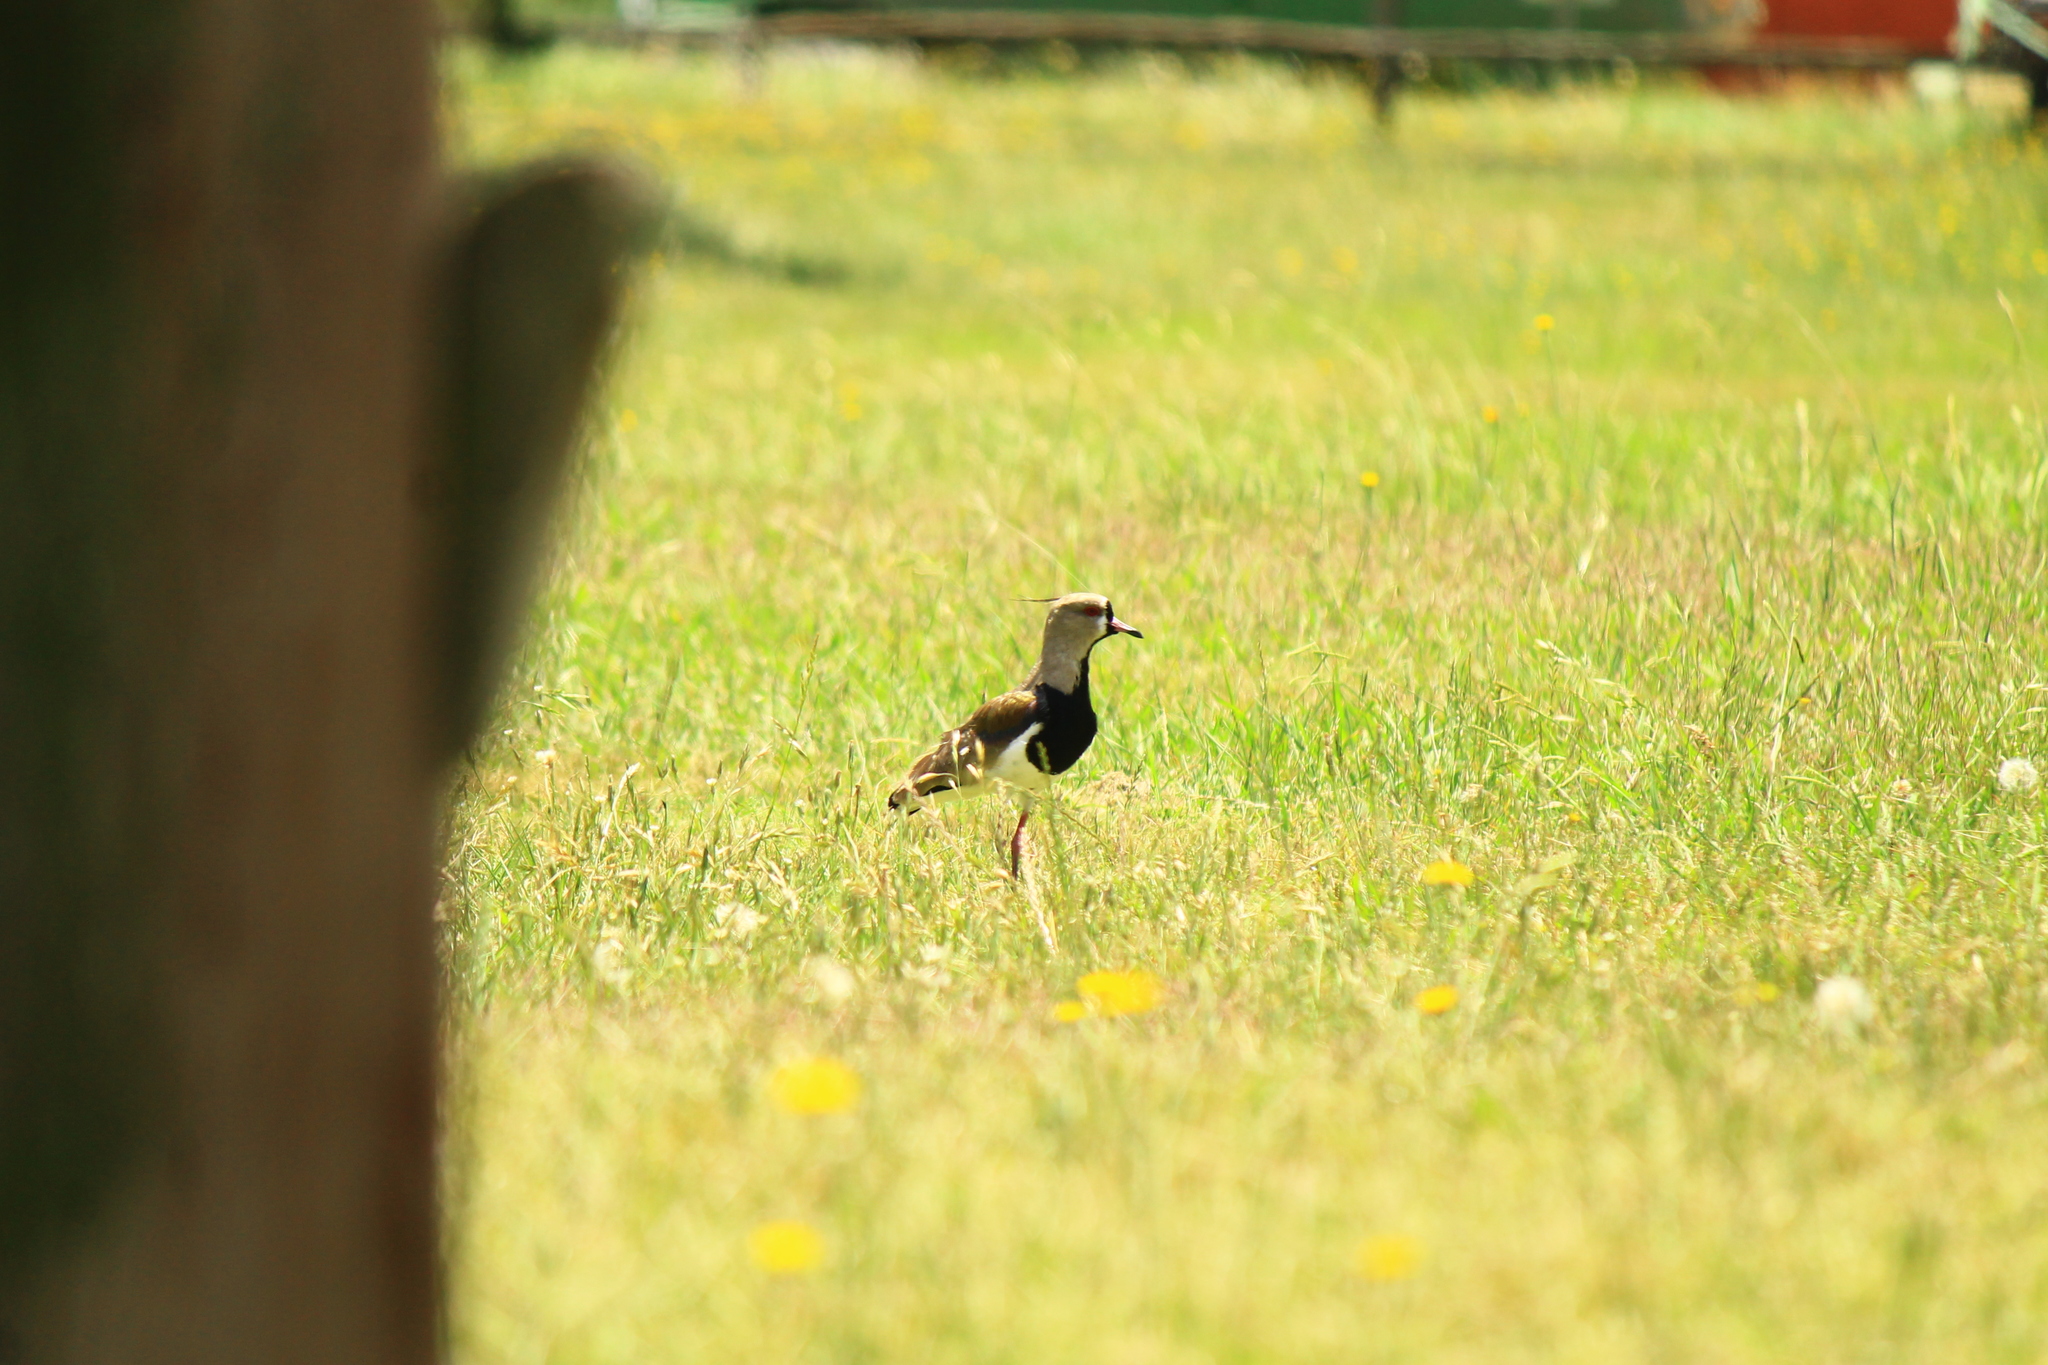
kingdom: Animalia
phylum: Chordata
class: Aves
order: Charadriiformes
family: Charadriidae
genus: Vanellus
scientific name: Vanellus chilensis
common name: Southern lapwing
